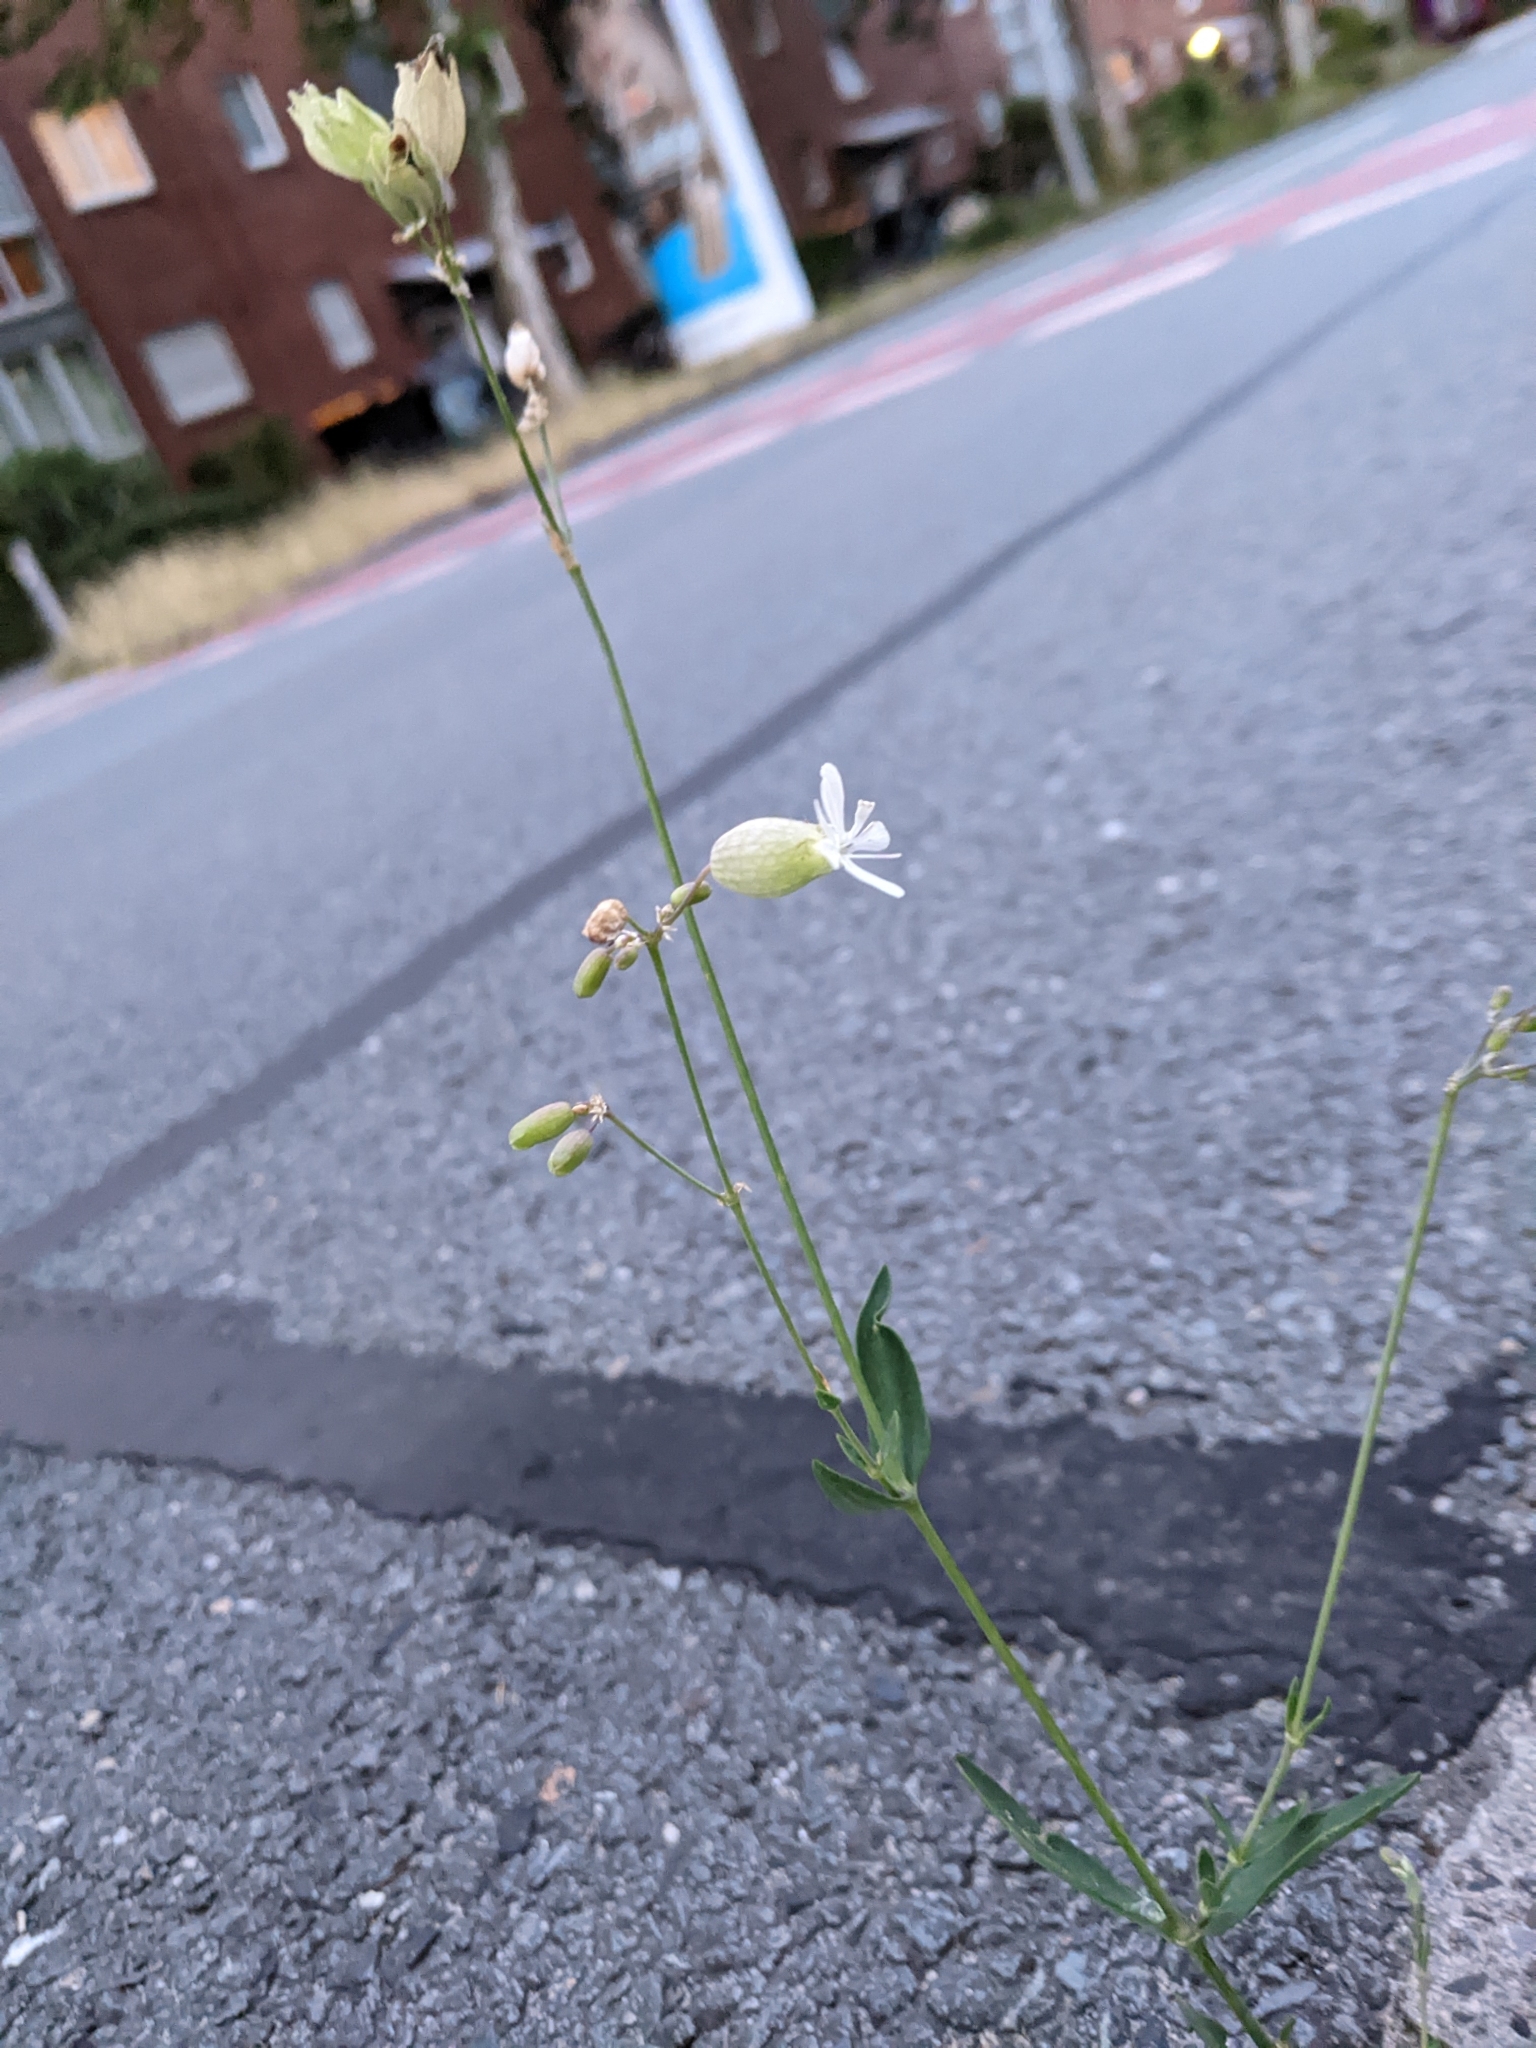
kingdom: Plantae
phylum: Tracheophyta
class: Magnoliopsida
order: Caryophyllales
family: Caryophyllaceae
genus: Silene
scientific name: Silene vulgaris
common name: Bladder campion
